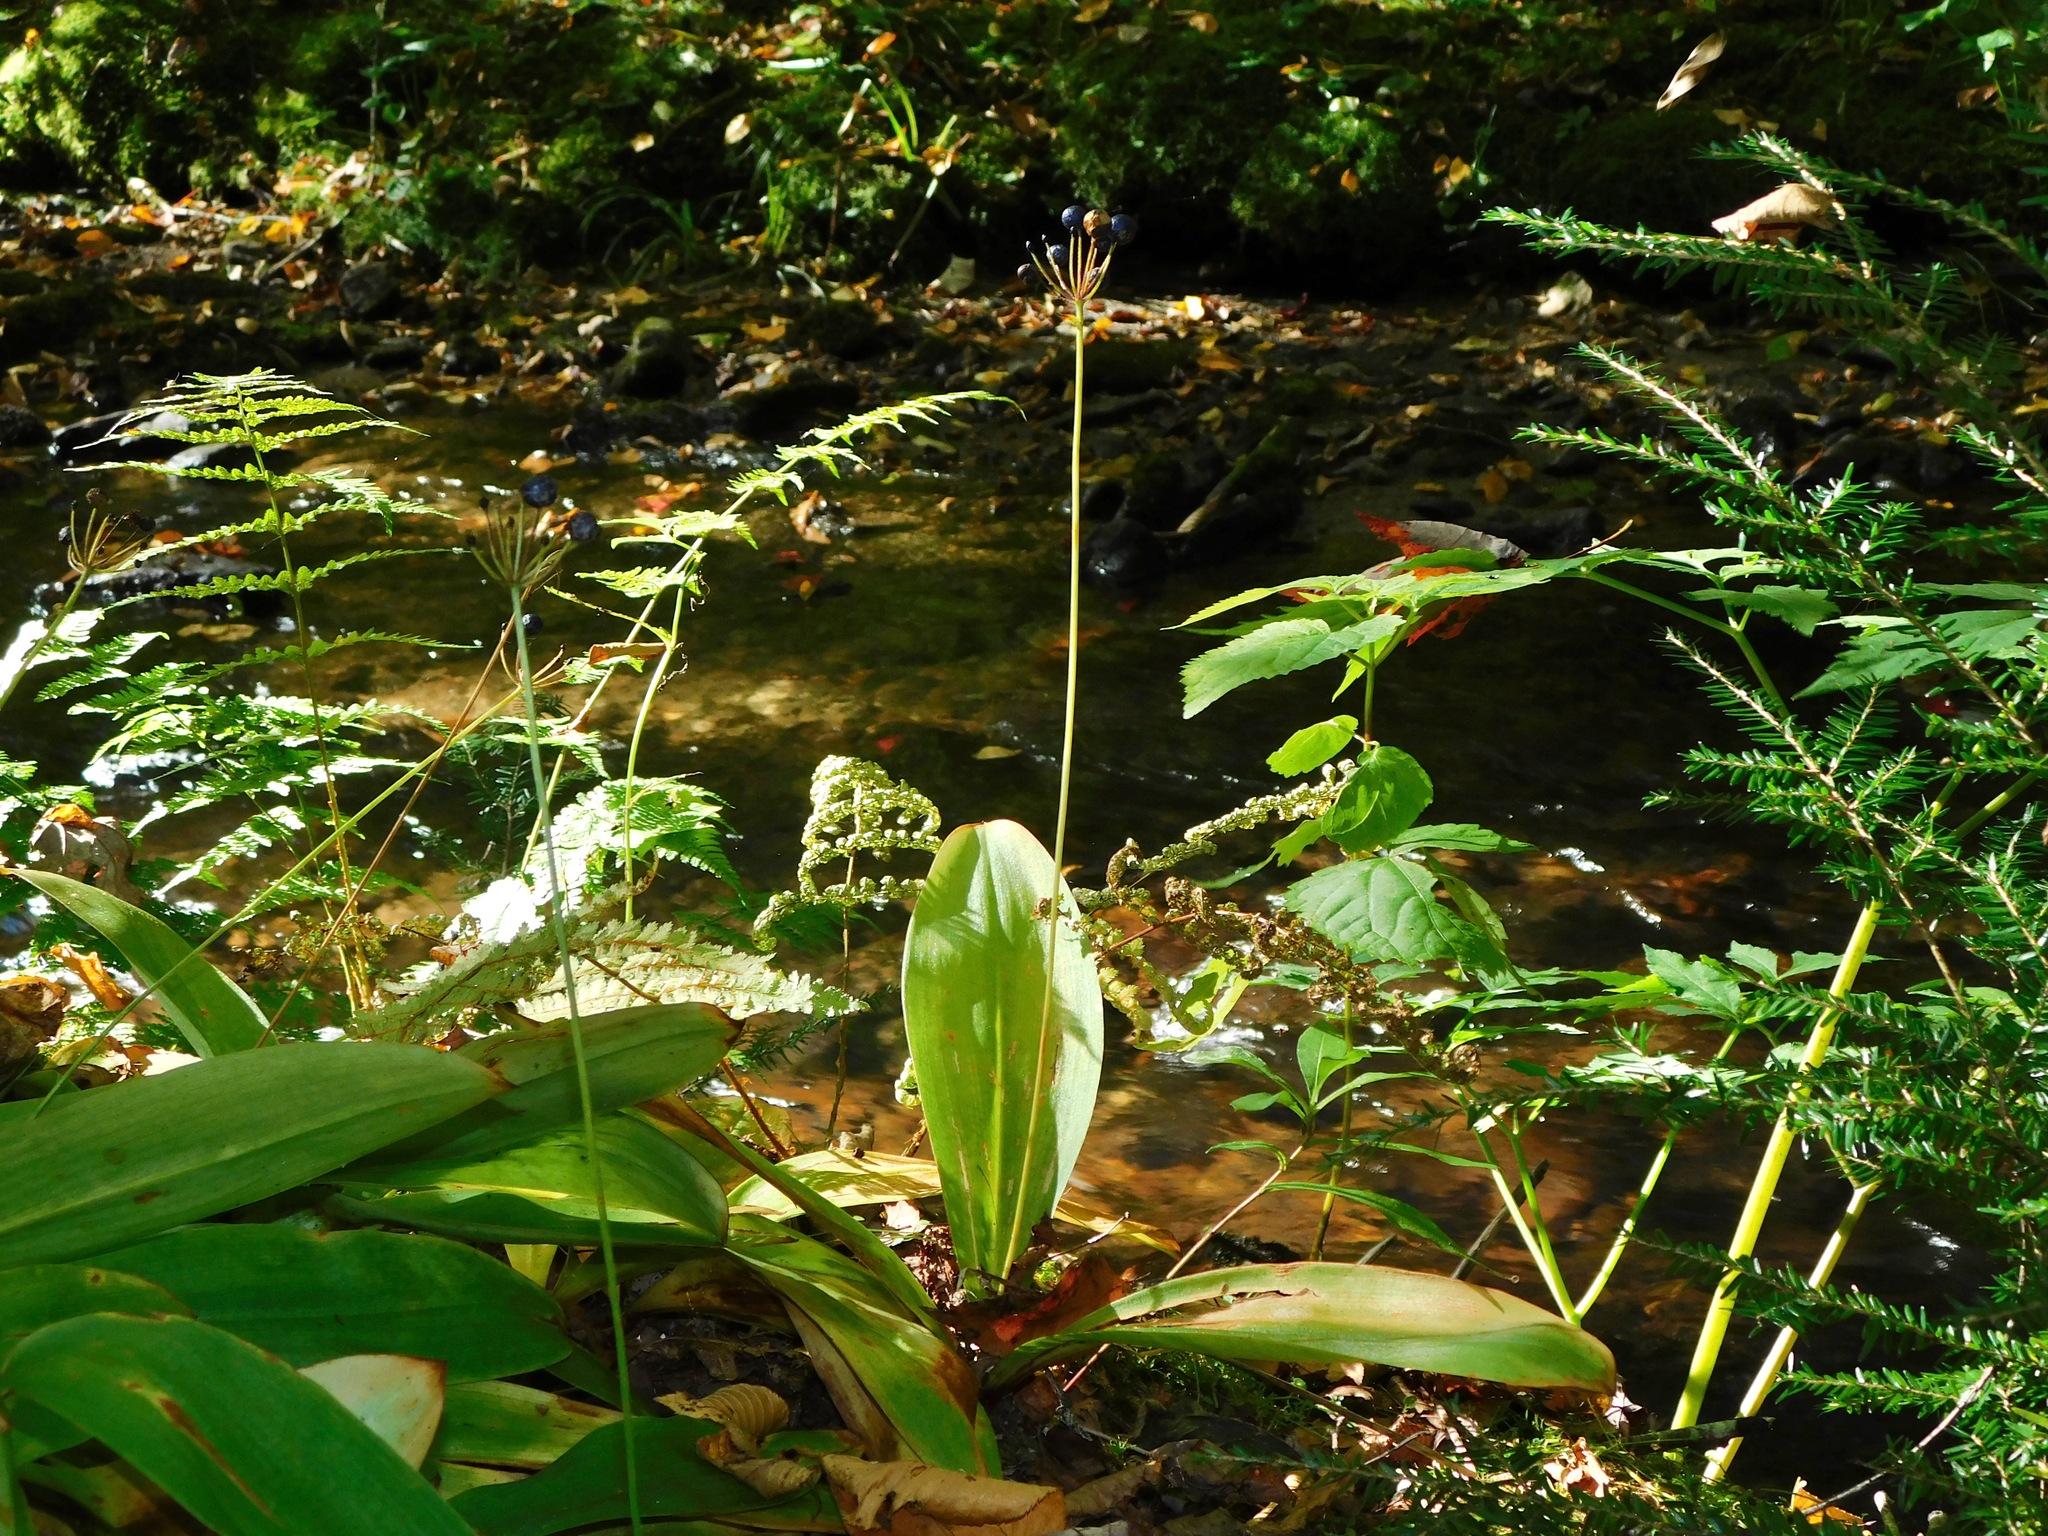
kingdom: Plantae
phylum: Tracheophyta
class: Liliopsida
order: Liliales
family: Liliaceae
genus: Clintonia
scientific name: Clintonia umbellulata
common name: Speckle wood-lily
